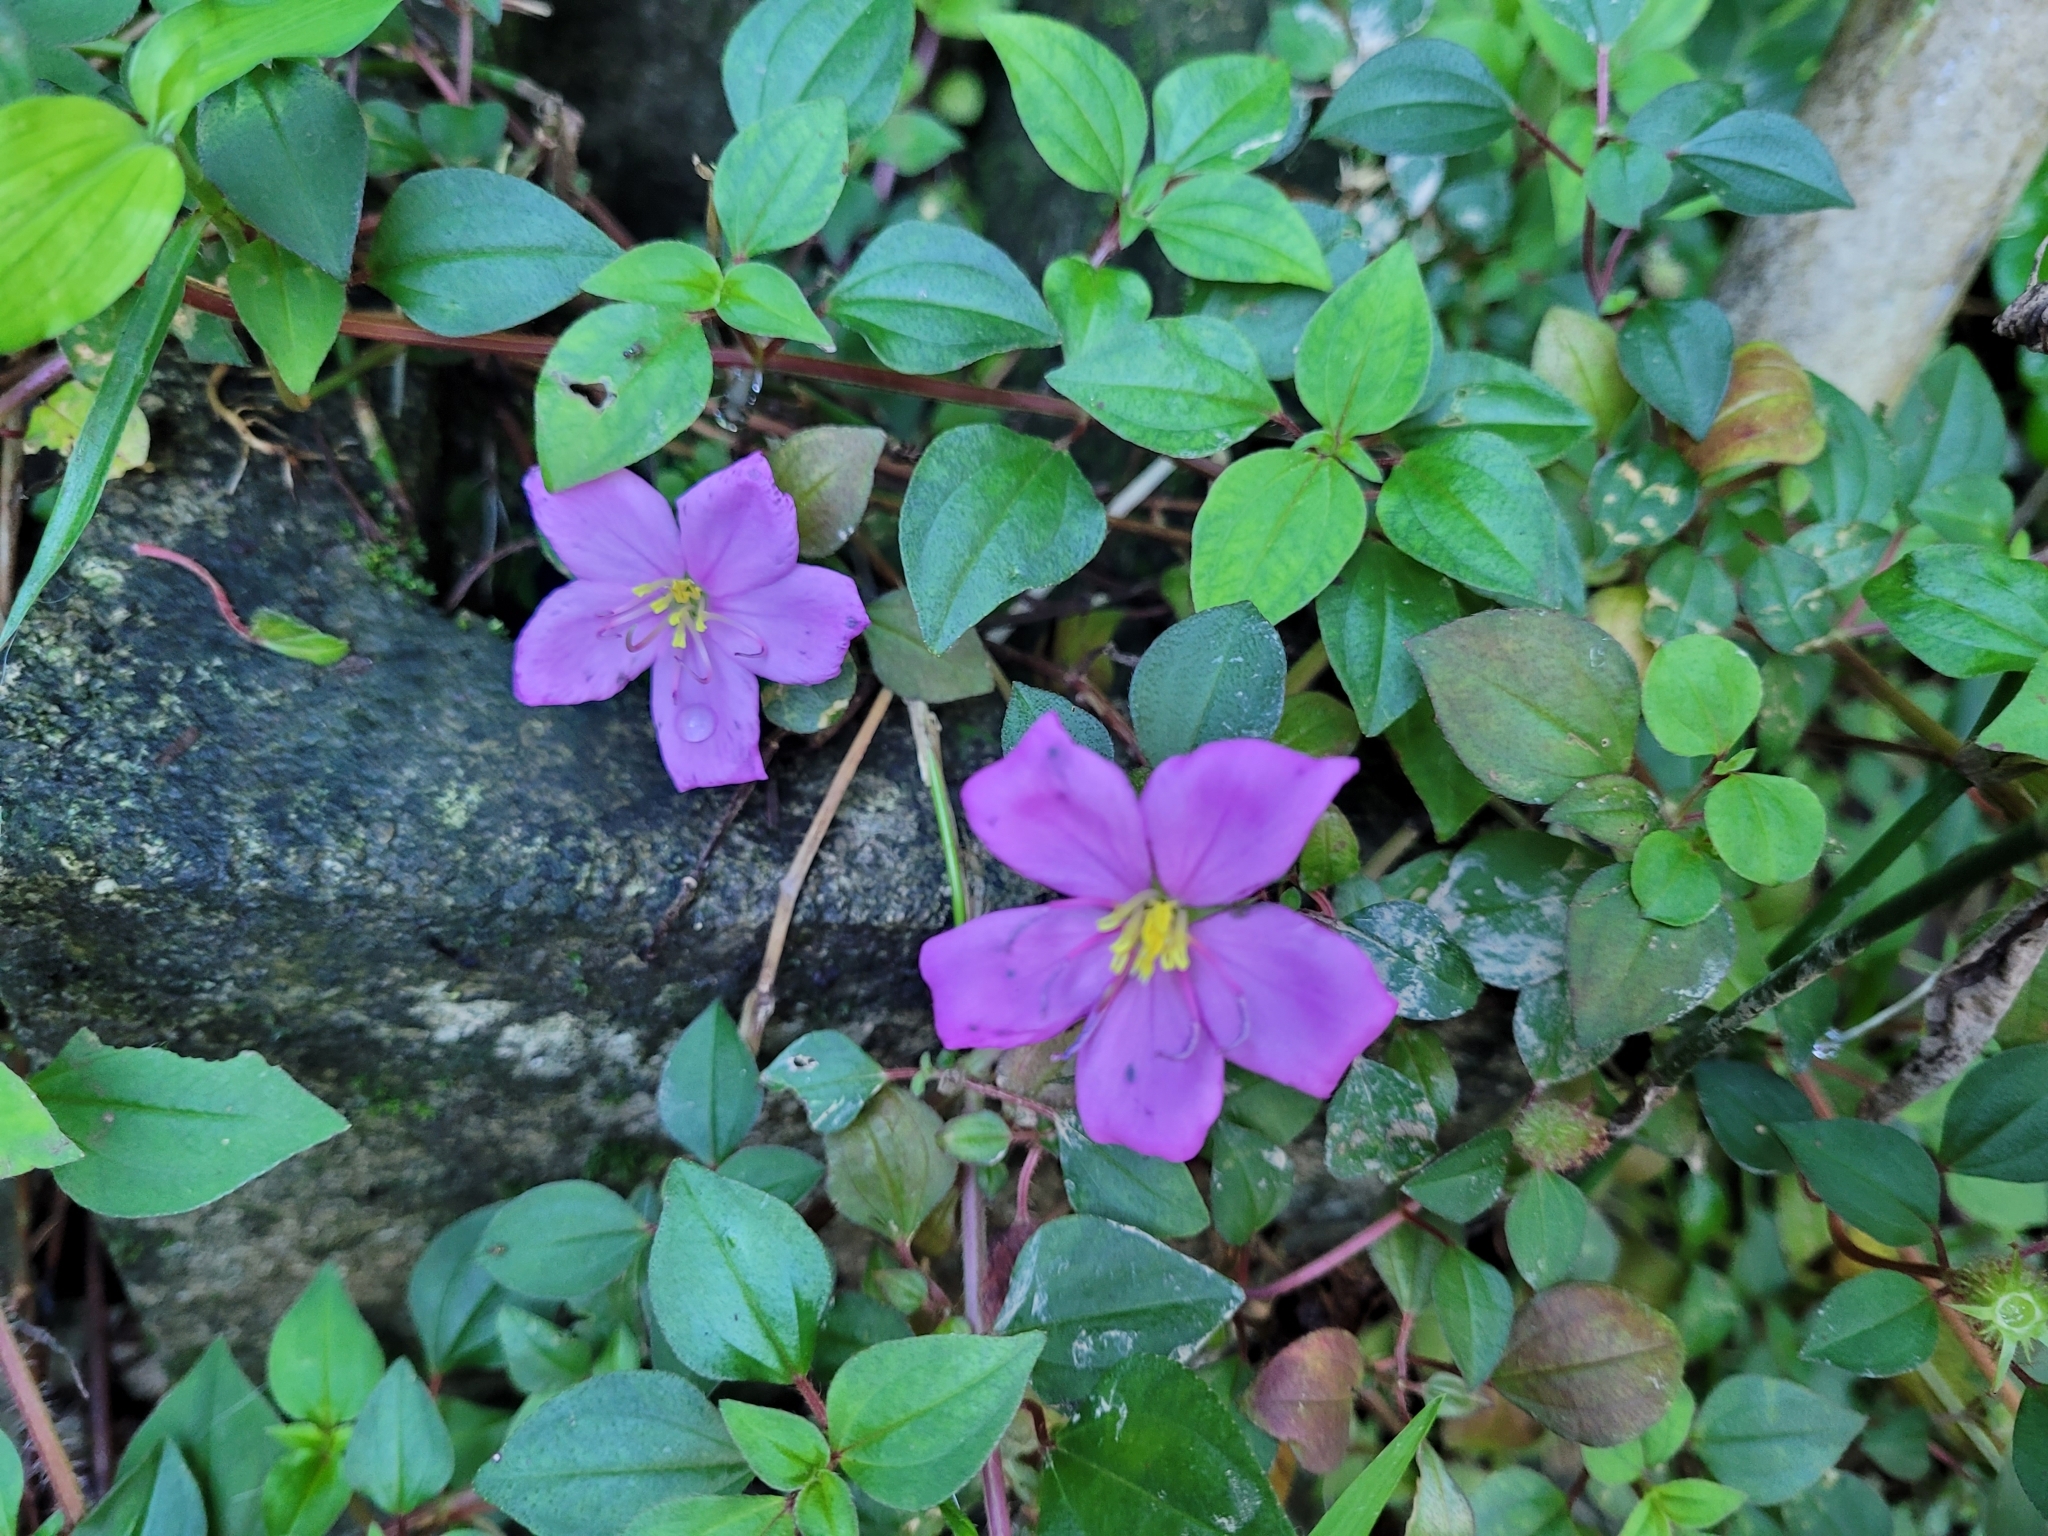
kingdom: Plantae
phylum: Tracheophyta
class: Magnoliopsida
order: Myrtales
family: Melastomataceae
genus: Heterotis
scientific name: Heterotis rotundifolia
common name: Pinklady
